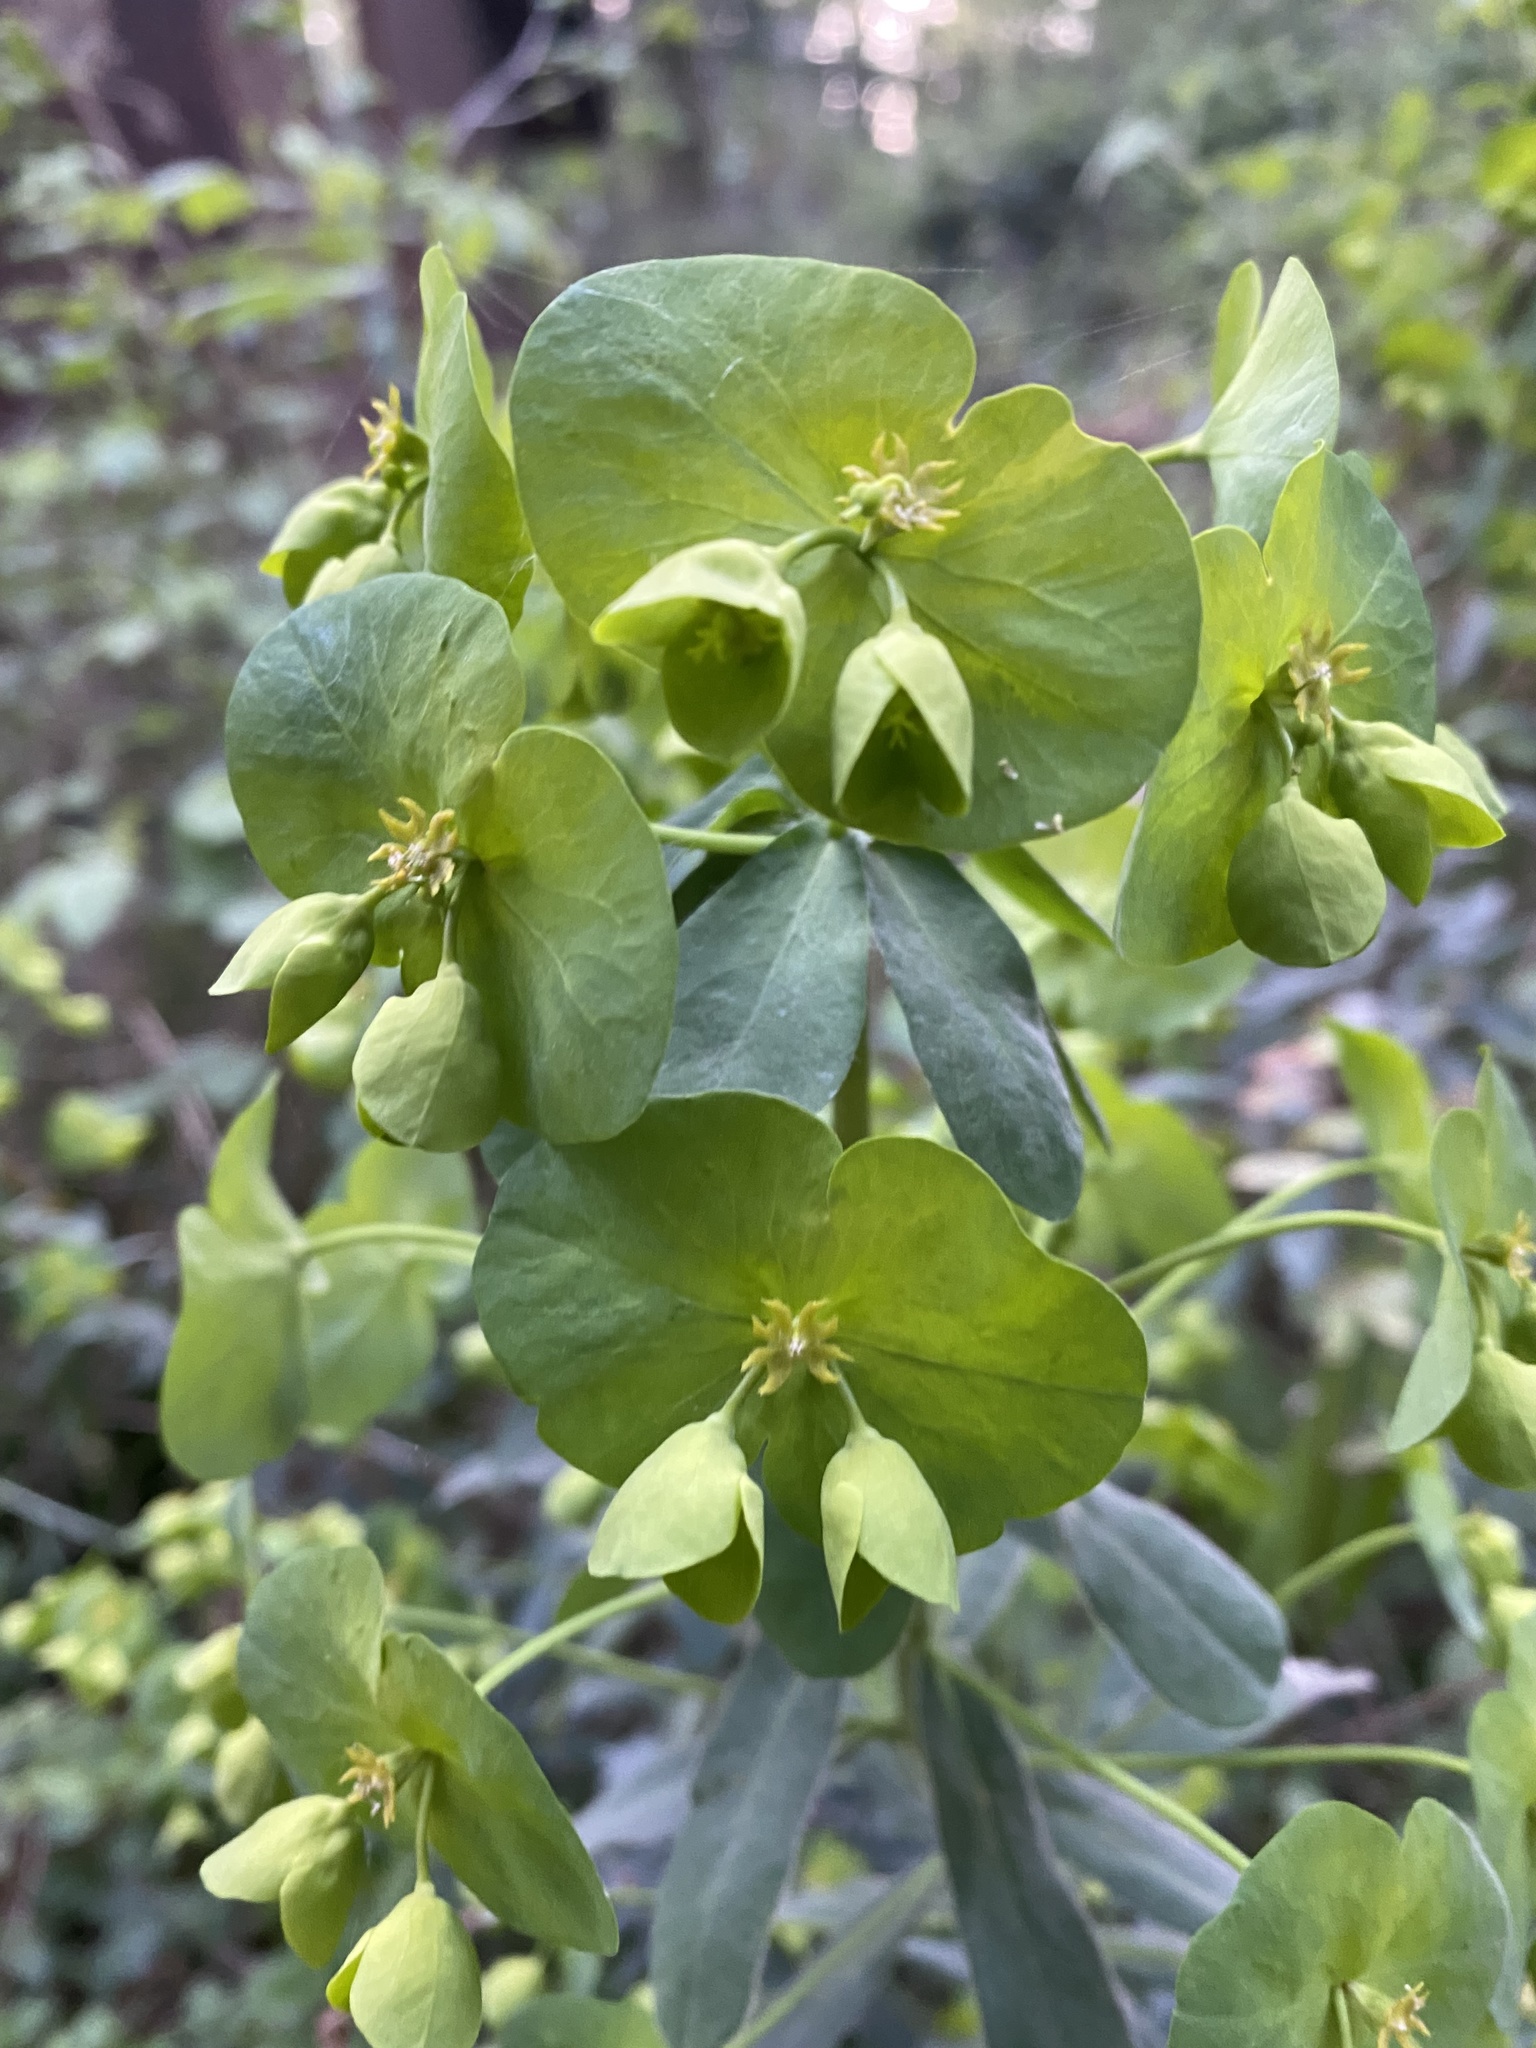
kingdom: Plantae
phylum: Tracheophyta
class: Magnoliopsida
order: Malpighiales
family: Euphorbiaceae
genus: Euphorbia
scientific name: Euphorbia amygdaloides
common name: Wood spurge
